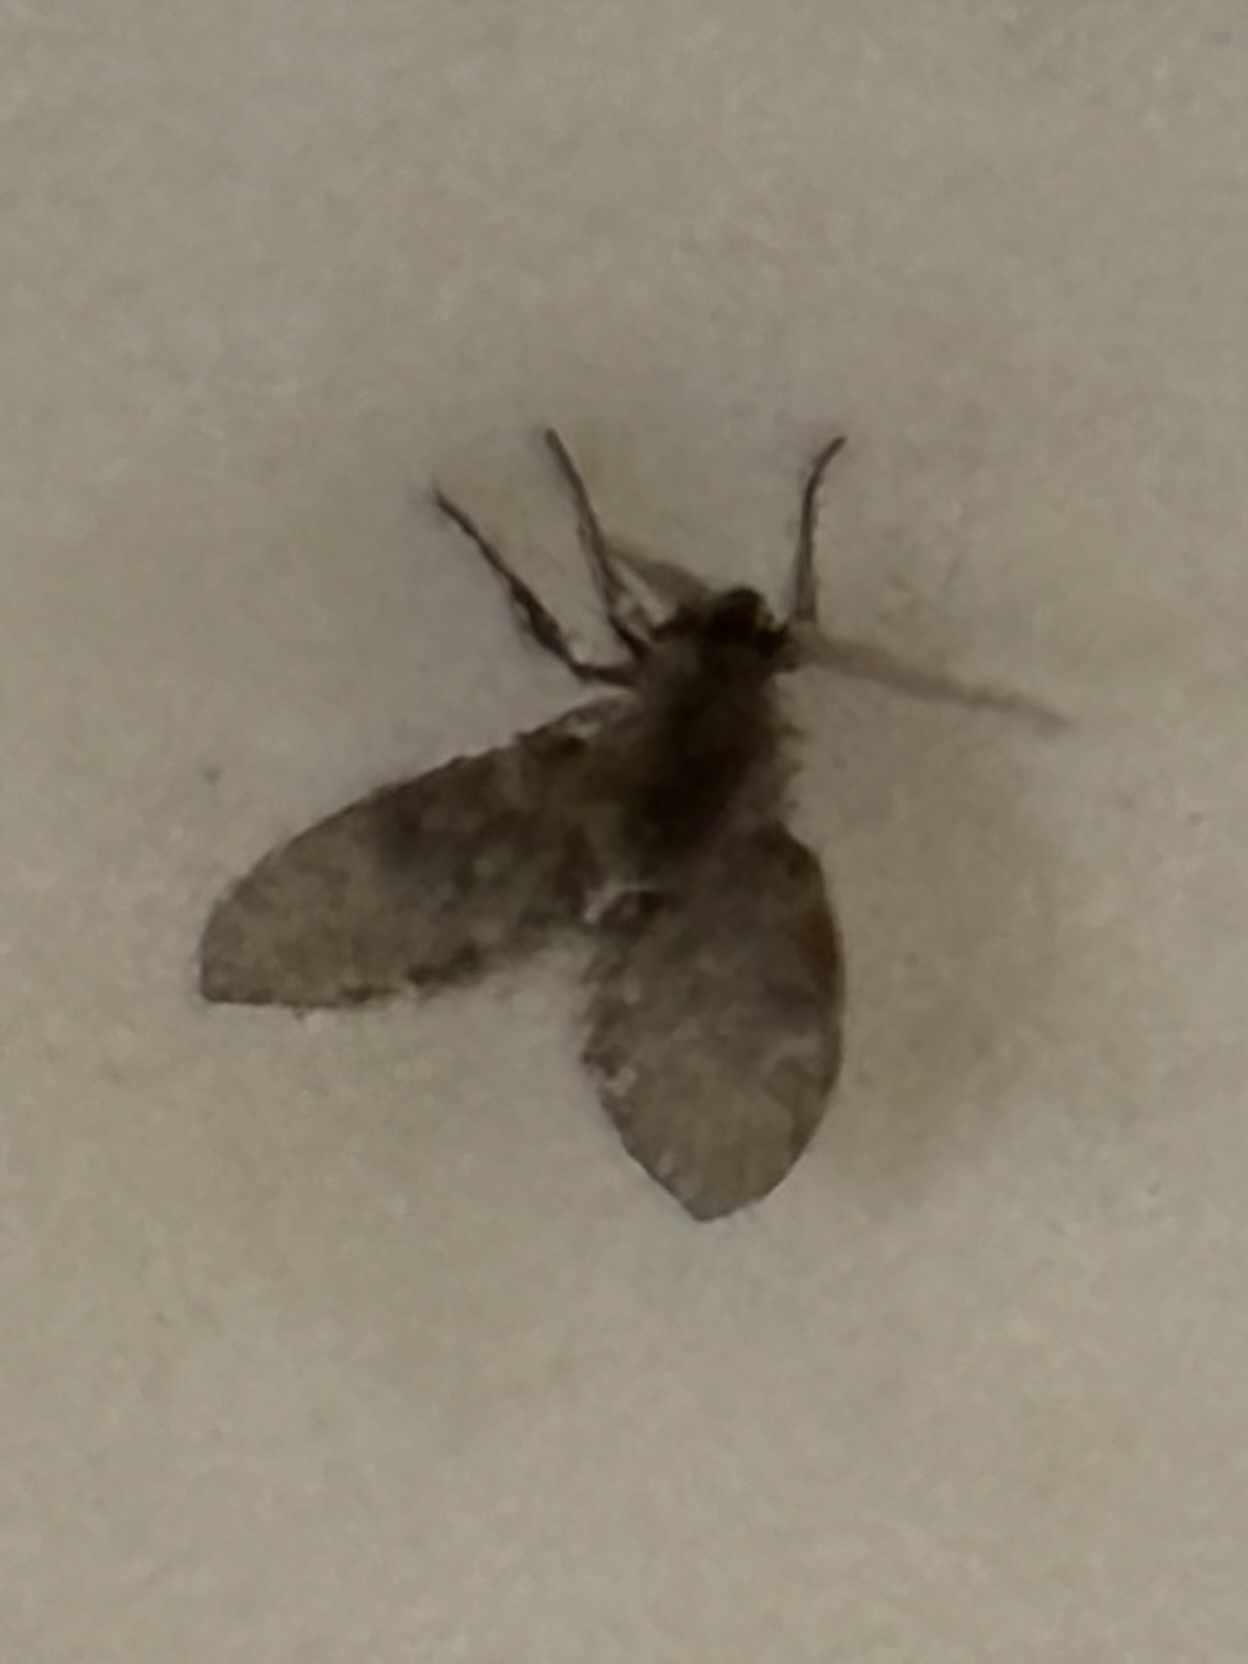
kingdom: Animalia
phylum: Arthropoda
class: Insecta
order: Diptera
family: Psychodidae
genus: Clogmia
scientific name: Clogmia albipunctatus
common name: White-spotted moth fly
